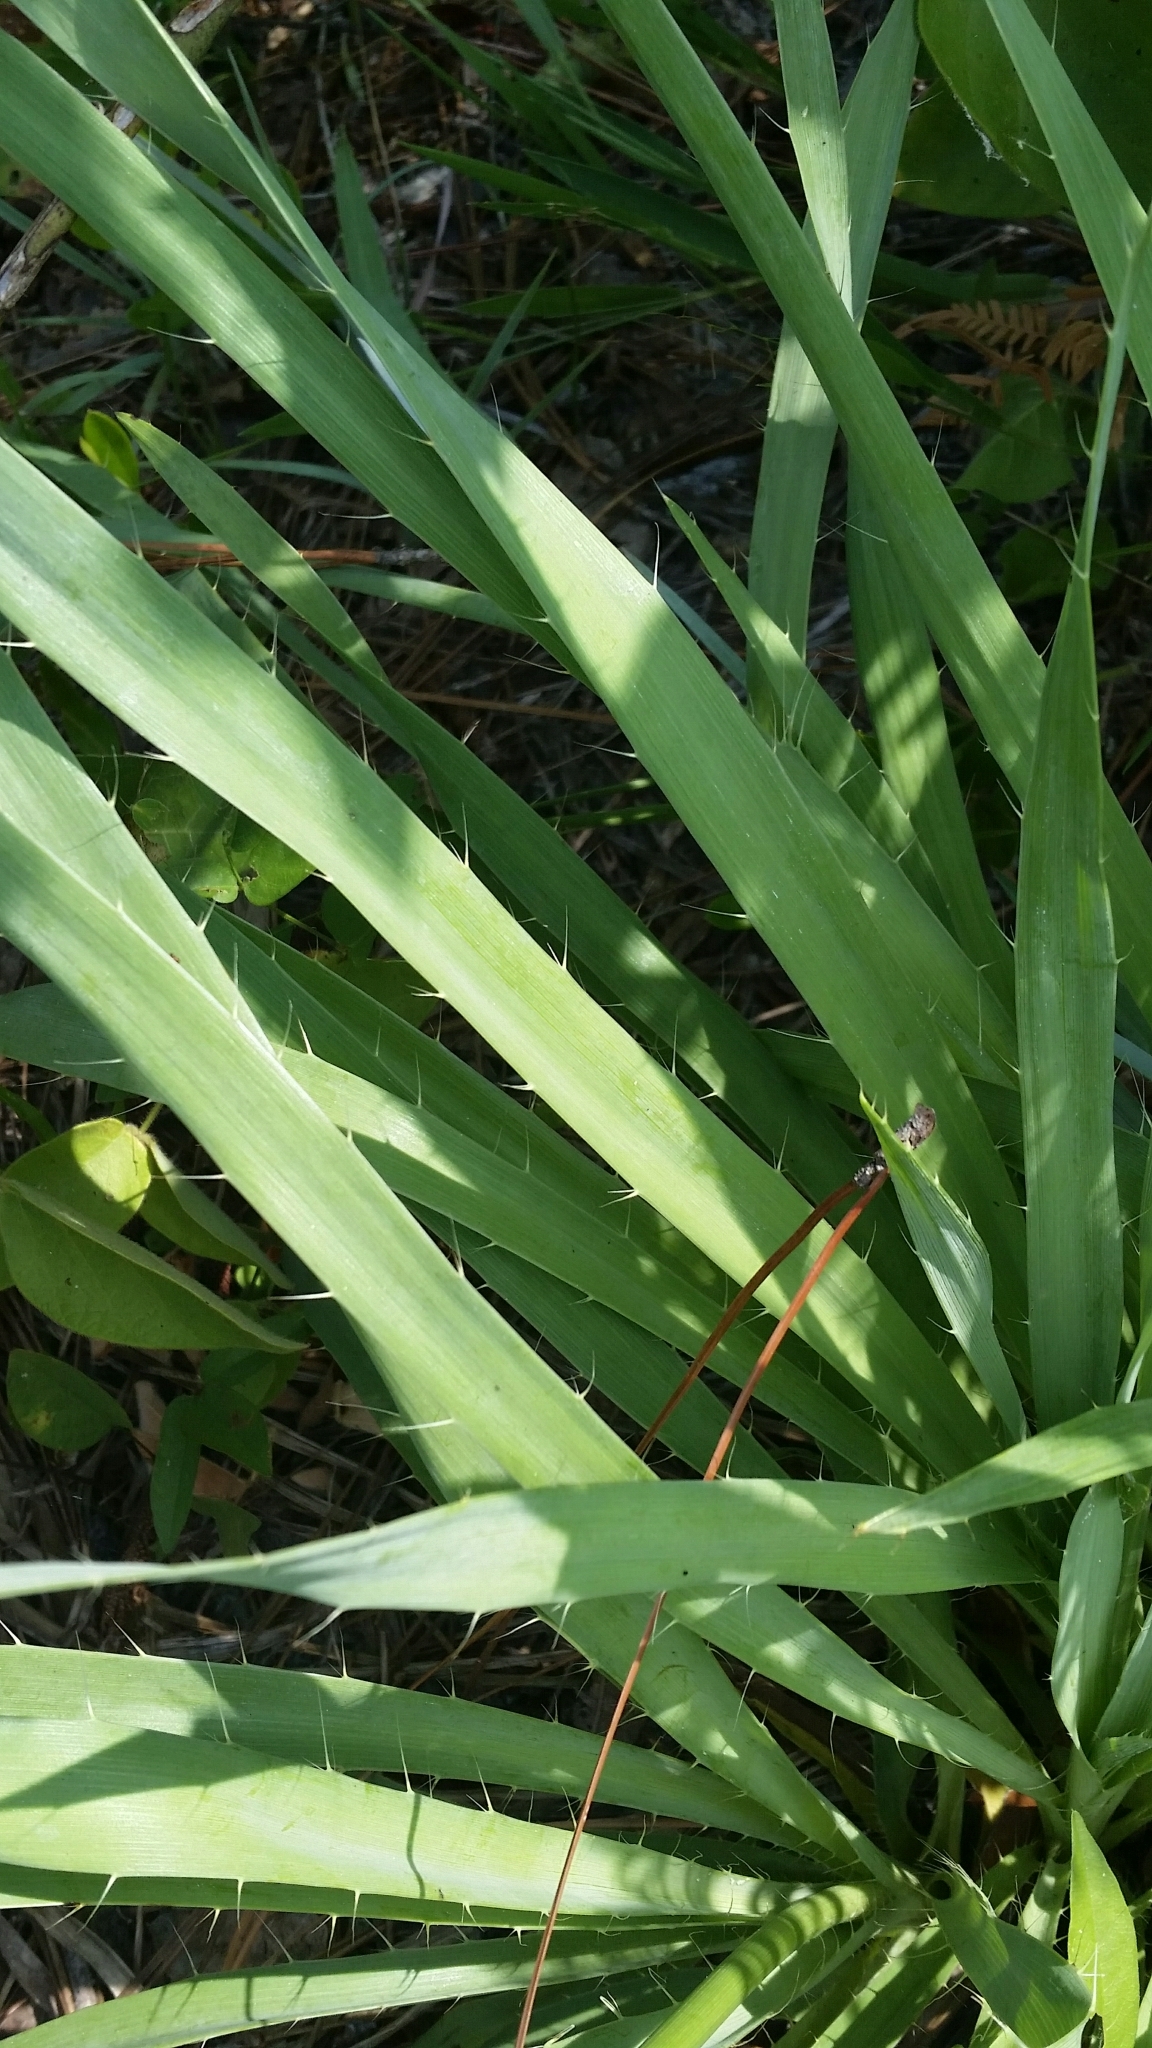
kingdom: Plantae
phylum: Tracheophyta
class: Magnoliopsida
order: Apiales
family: Apiaceae
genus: Eryngium
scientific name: Eryngium yuccifolium
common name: Button eryngo
